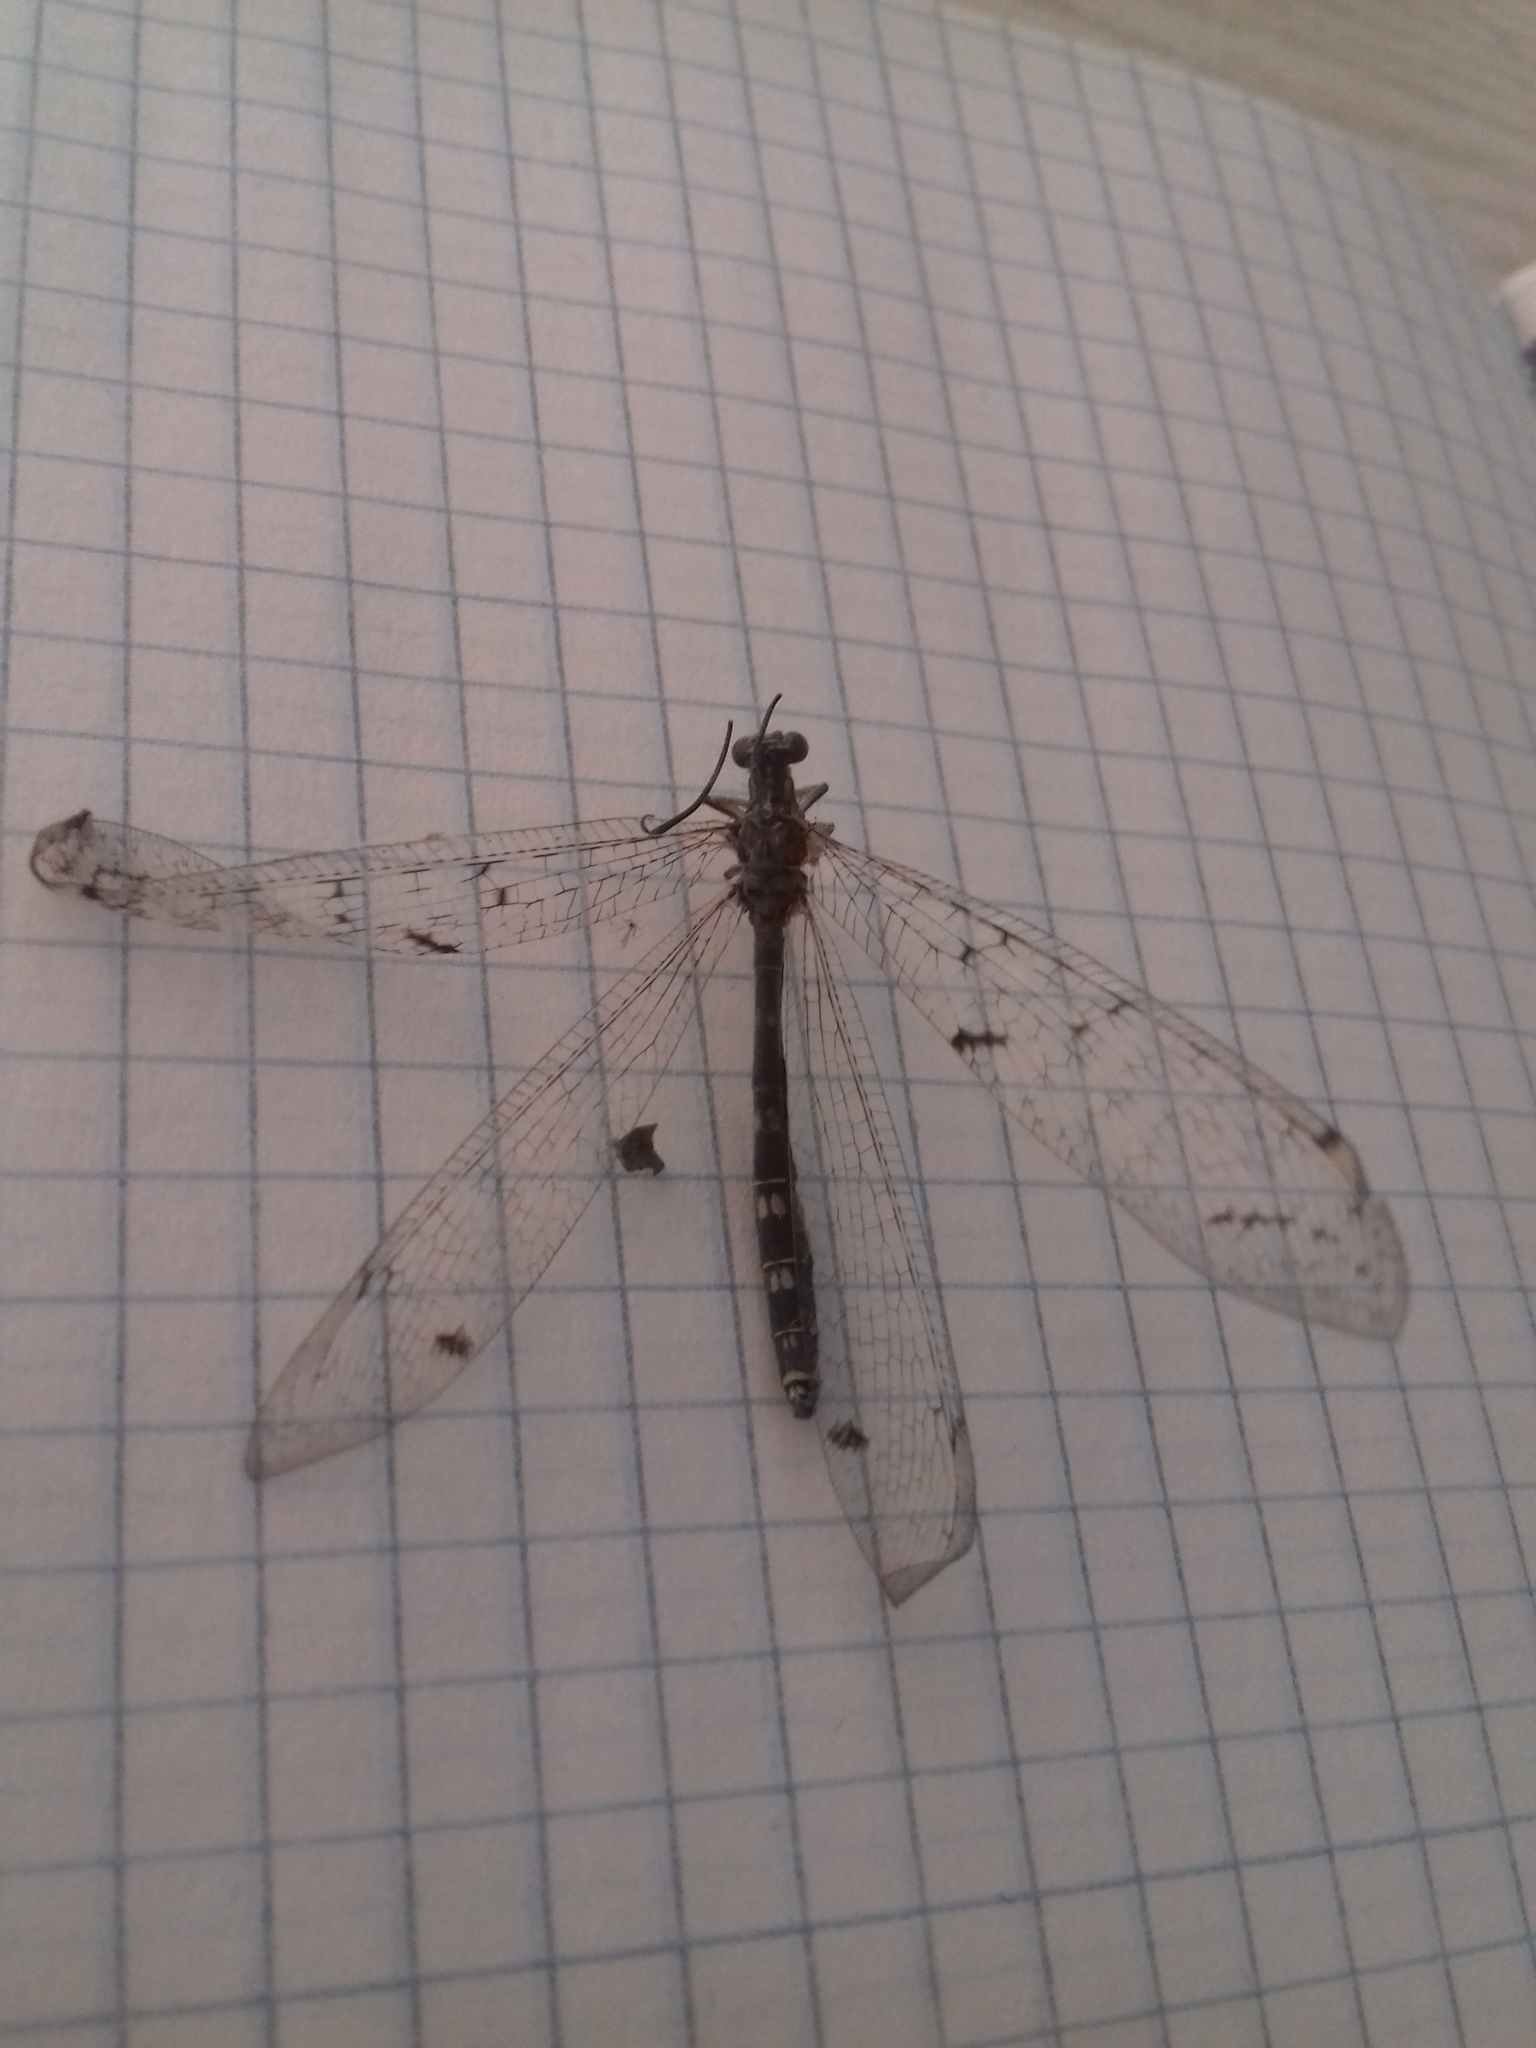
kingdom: Animalia
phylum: Arthropoda
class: Insecta
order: Neuroptera
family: Myrmeleontidae
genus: Distoleon
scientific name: Distoleon tetragrammicus
